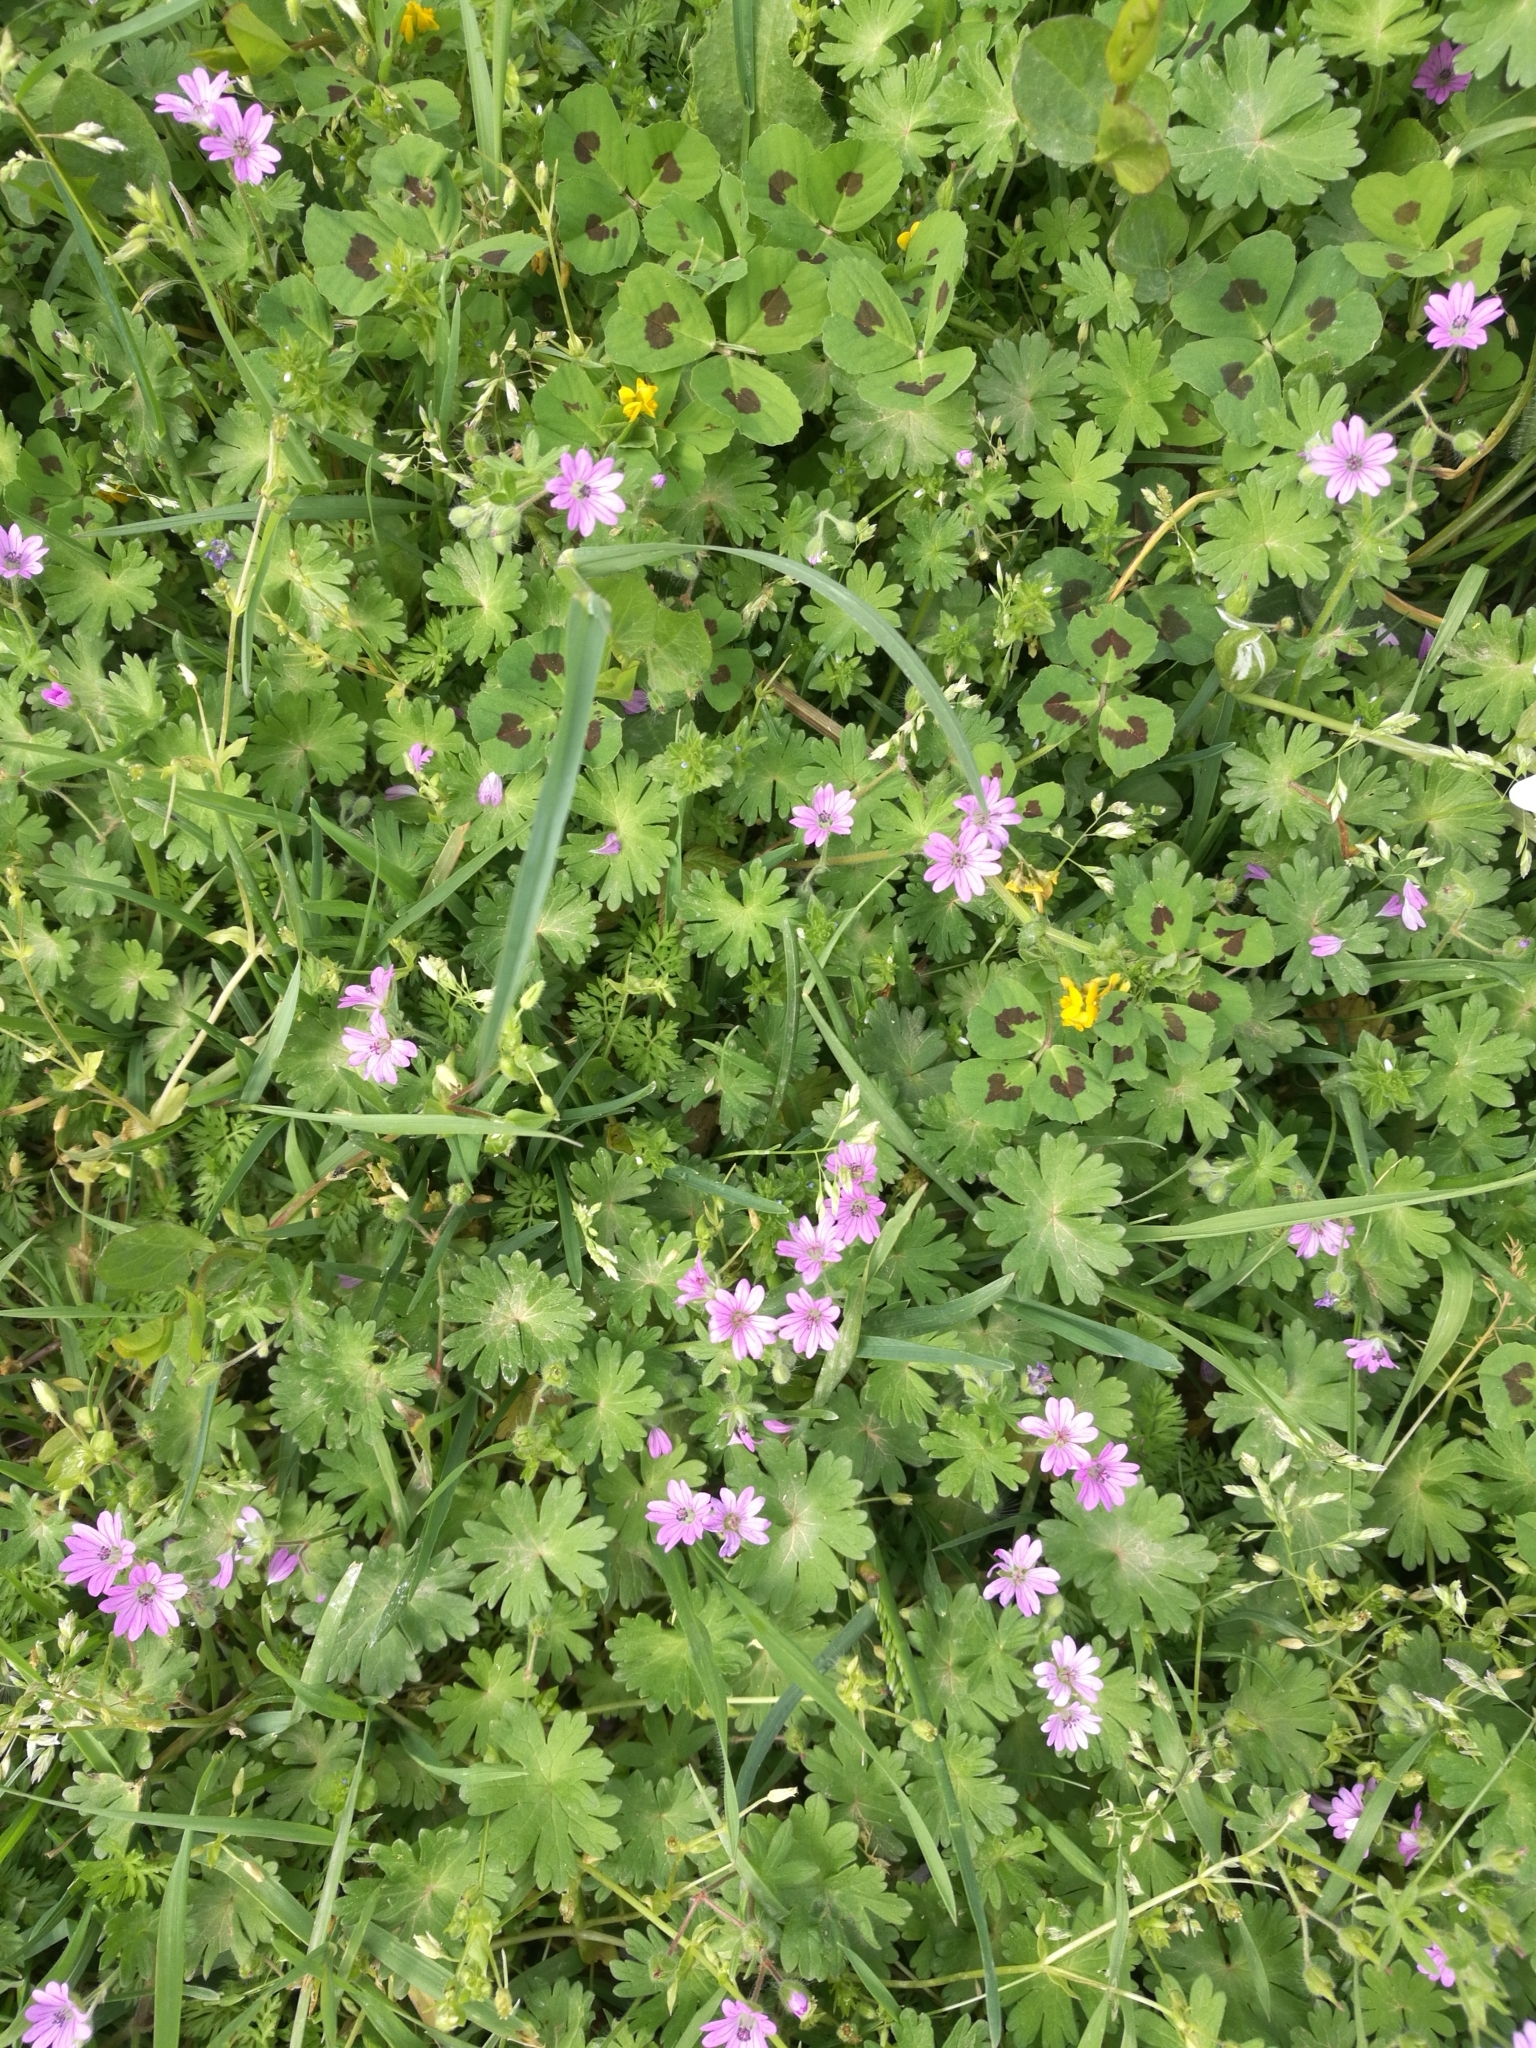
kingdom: Plantae
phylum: Tracheophyta
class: Magnoliopsida
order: Geraniales
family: Geraniaceae
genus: Geranium
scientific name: Geranium molle
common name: Dove's-foot crane's-bill
